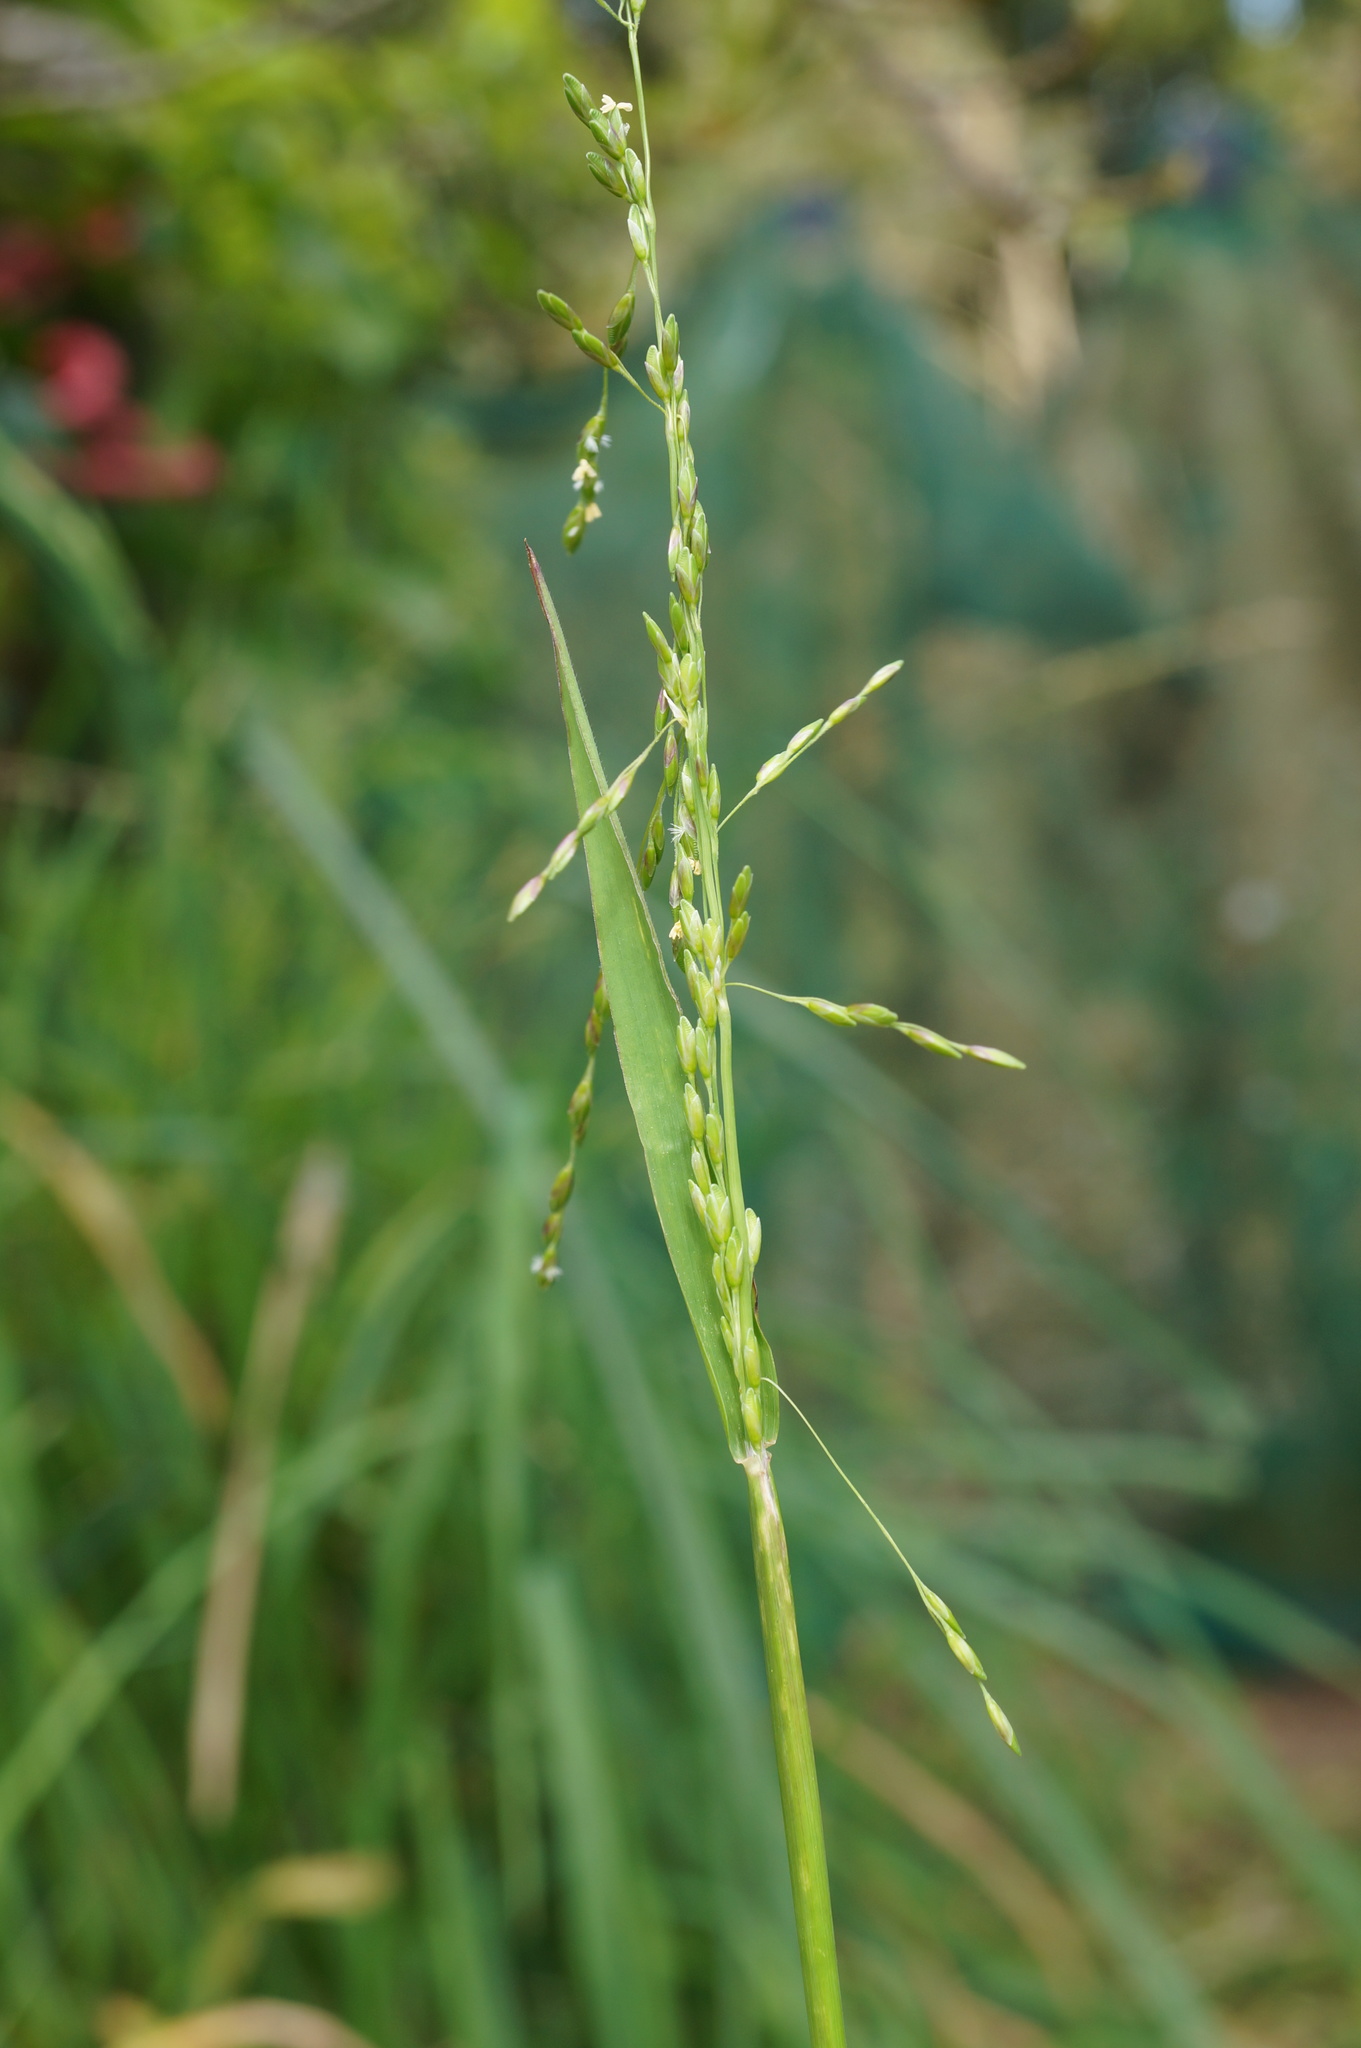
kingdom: Plantae
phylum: Tracheophyta
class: Liliopsida
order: Poales
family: Poaceae
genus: Ehrharta
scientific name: Ehrharta erecta
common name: Panic veldtgrass
